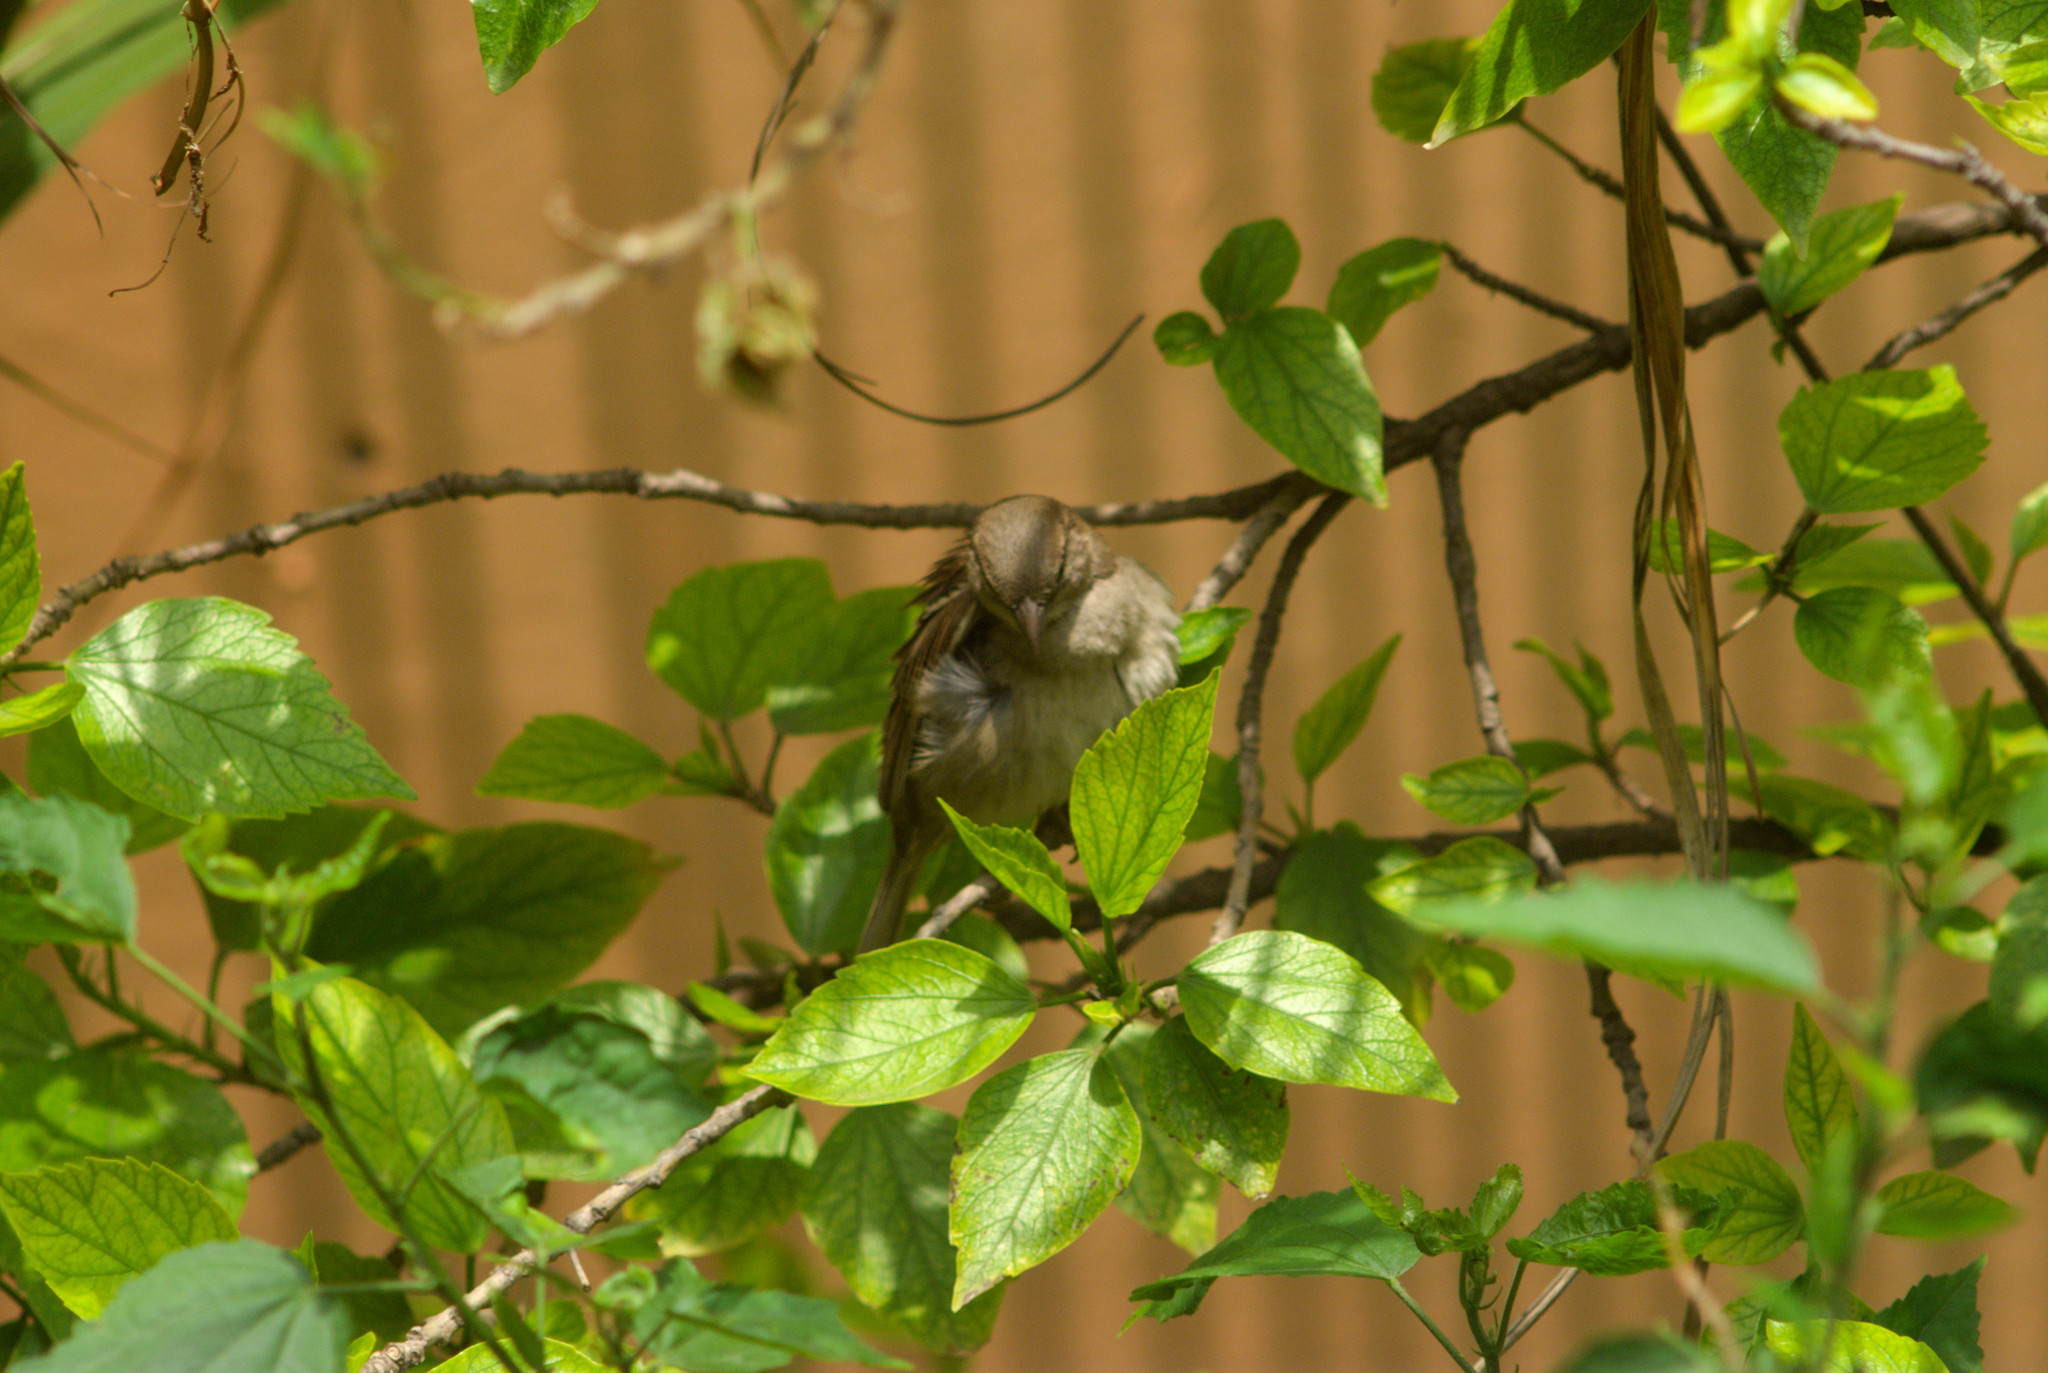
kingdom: Animalia
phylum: Chordata
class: Aves
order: Passeriformes
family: Passeridae
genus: Passer
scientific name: Passer domesticus
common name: House sparrow
